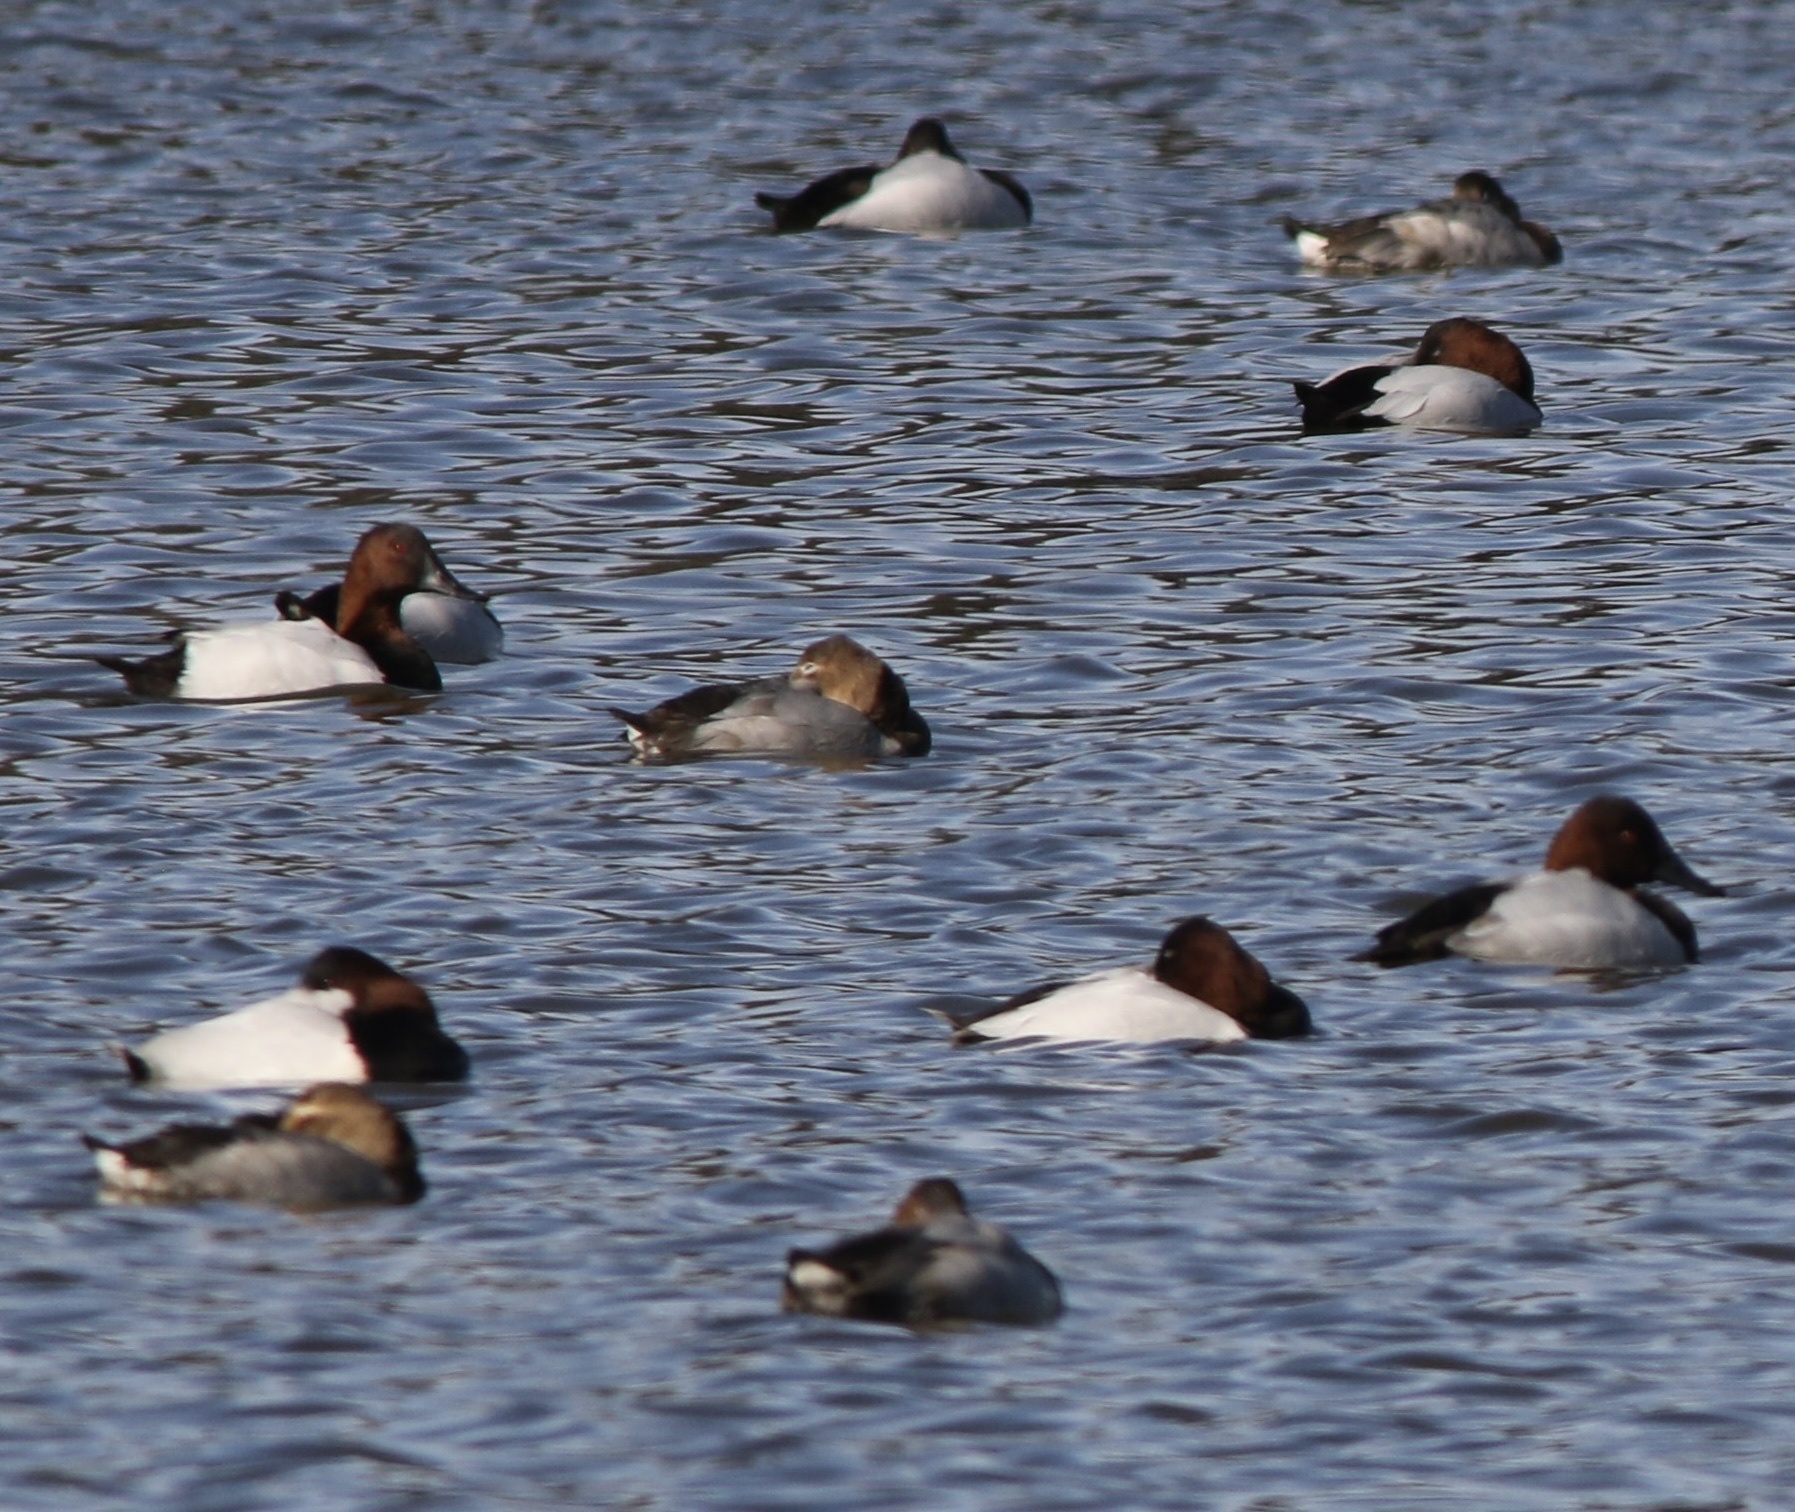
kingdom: Animalia
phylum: Chordata
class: Aves
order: Anseriformes
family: Anatidae
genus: Aythya
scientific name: Aythya valisineria
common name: Canvasback
